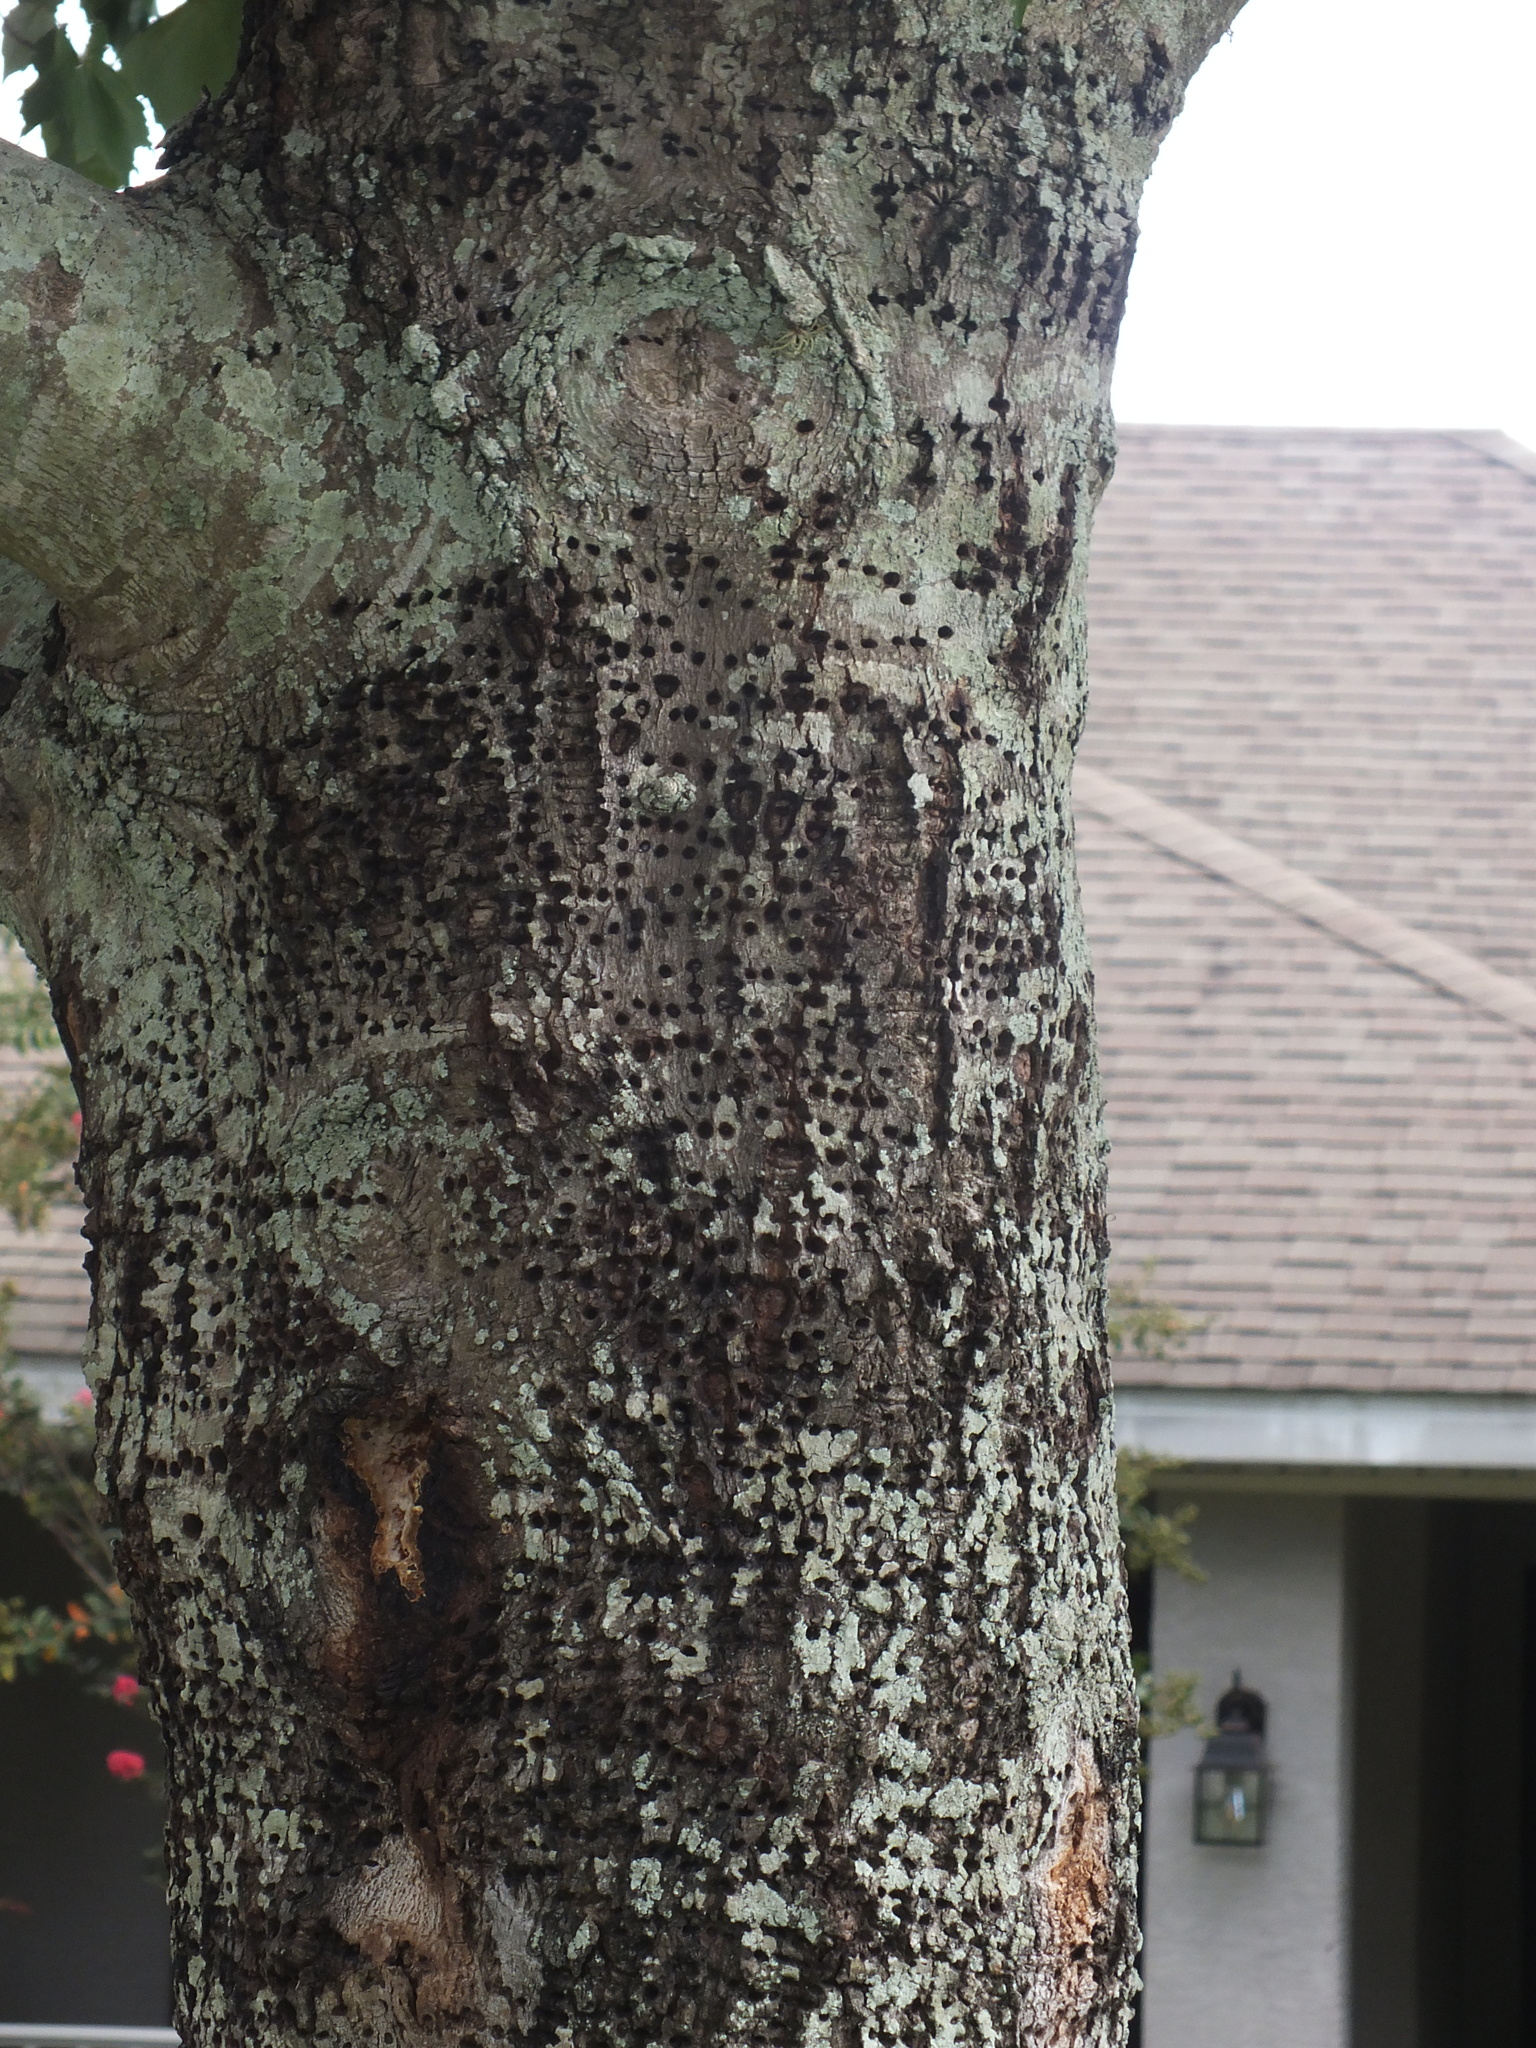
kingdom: Animalia
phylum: Chordata
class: Aves
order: Piciformes
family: Picidae
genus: Sphyrapicus
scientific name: Sphyrapicus varius
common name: Yellow-bellied sapsucker
